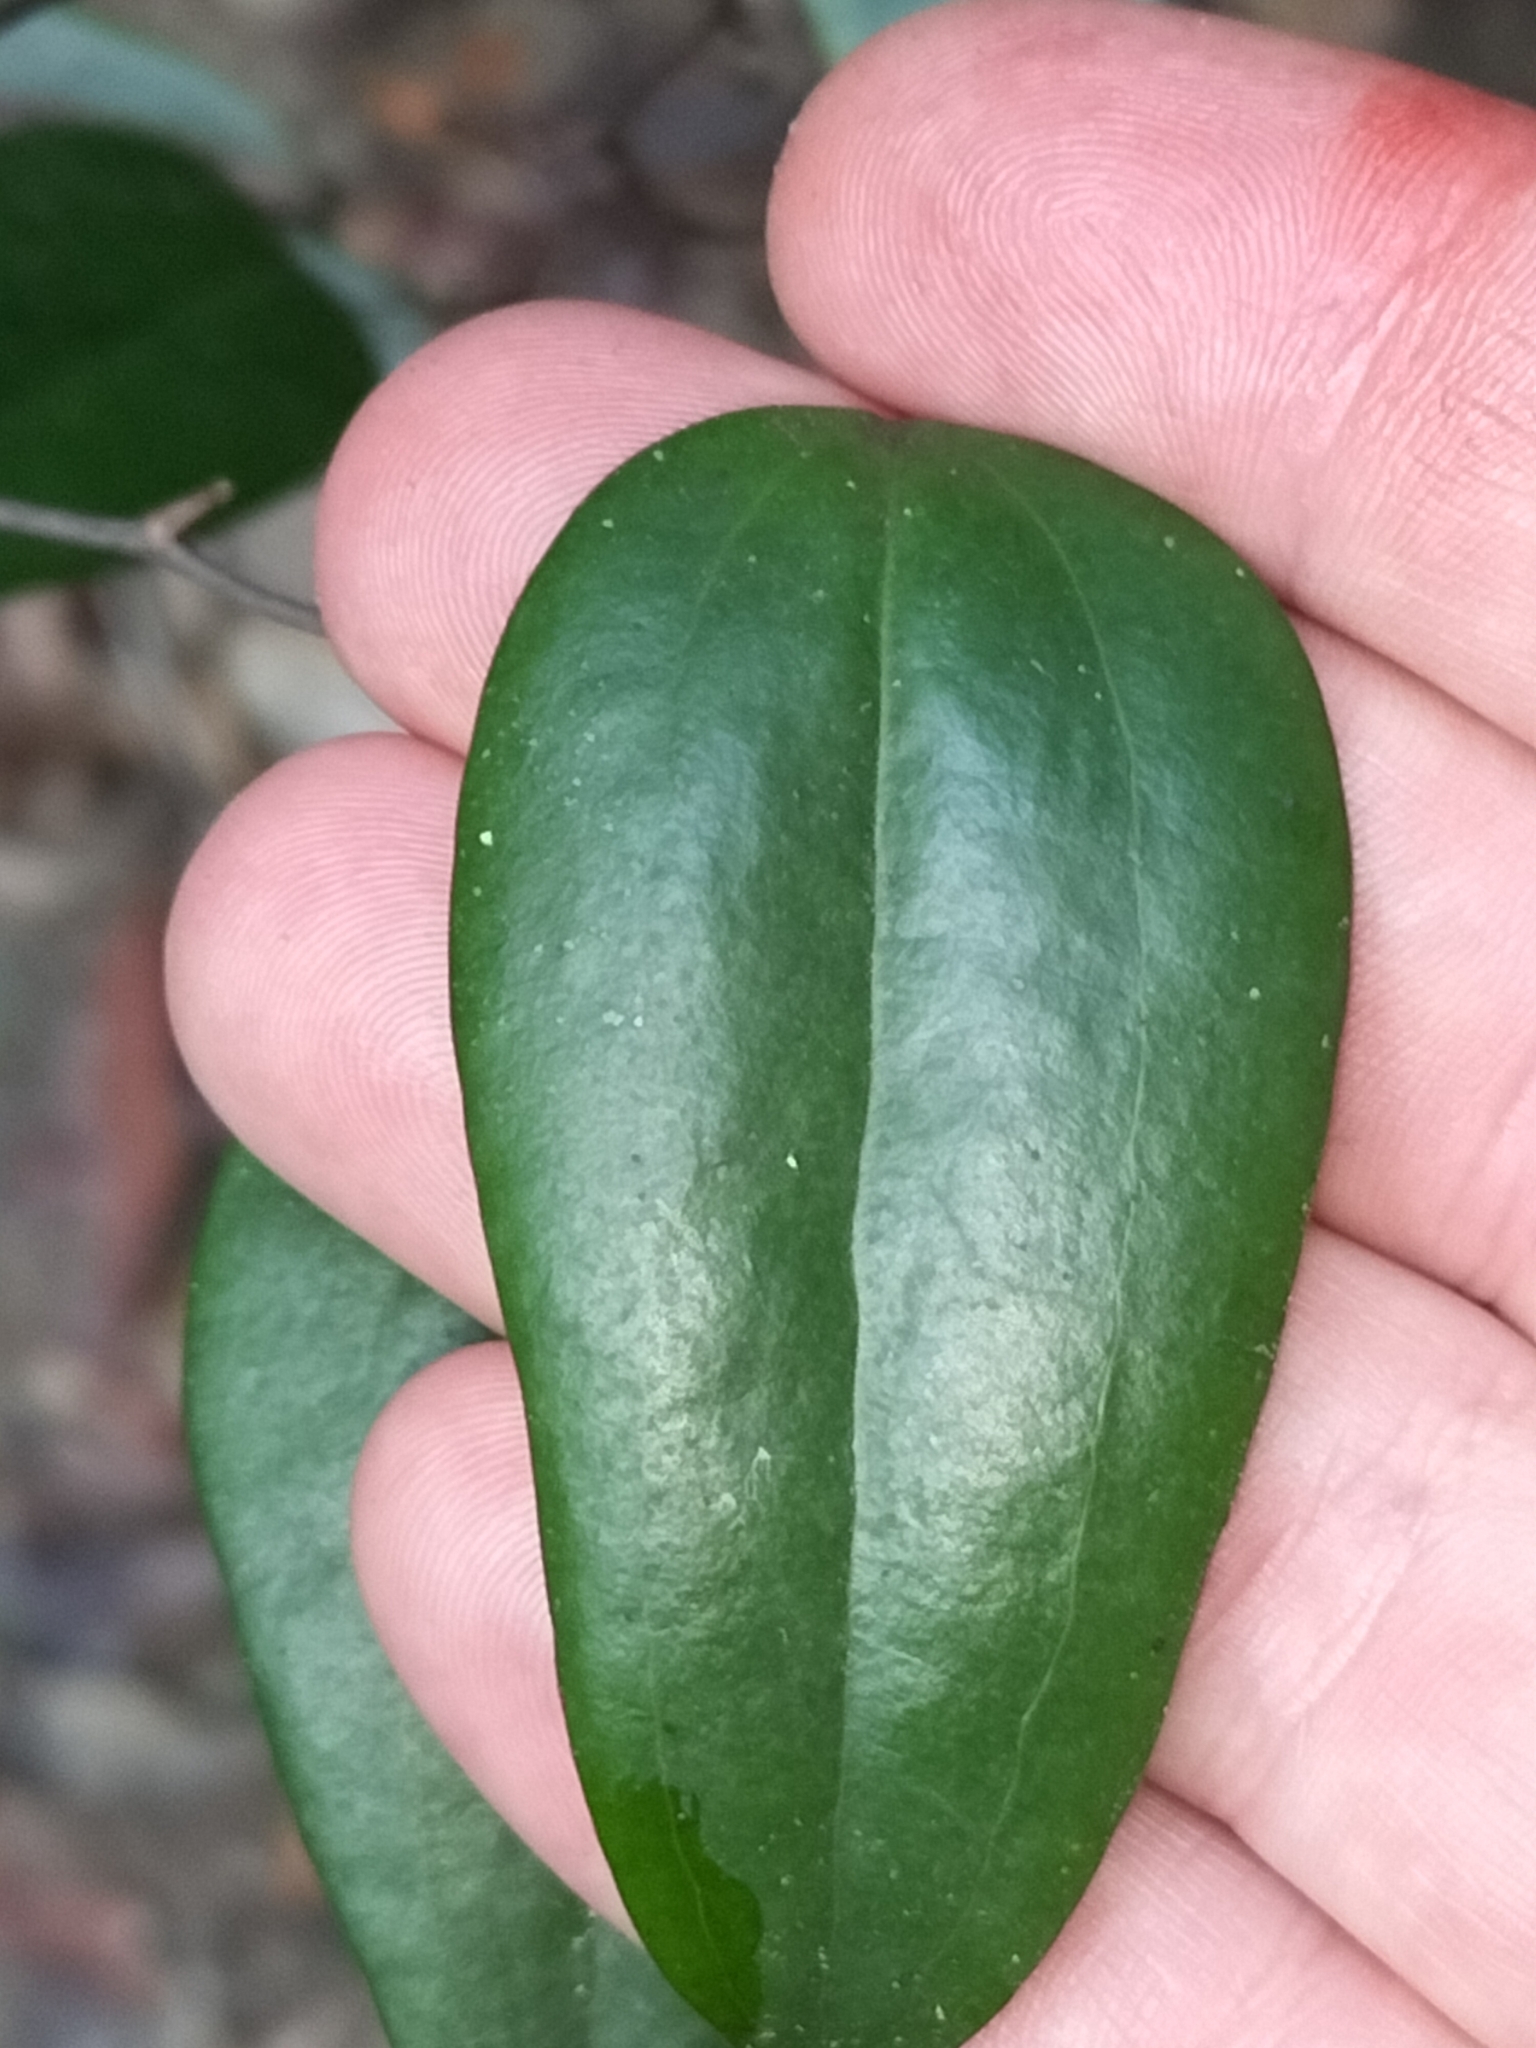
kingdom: Plantae
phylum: Tracheophyta
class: Liliopsida
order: Liliales
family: Smilacaceae
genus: Smilax
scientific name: Smilax glyciphylla
